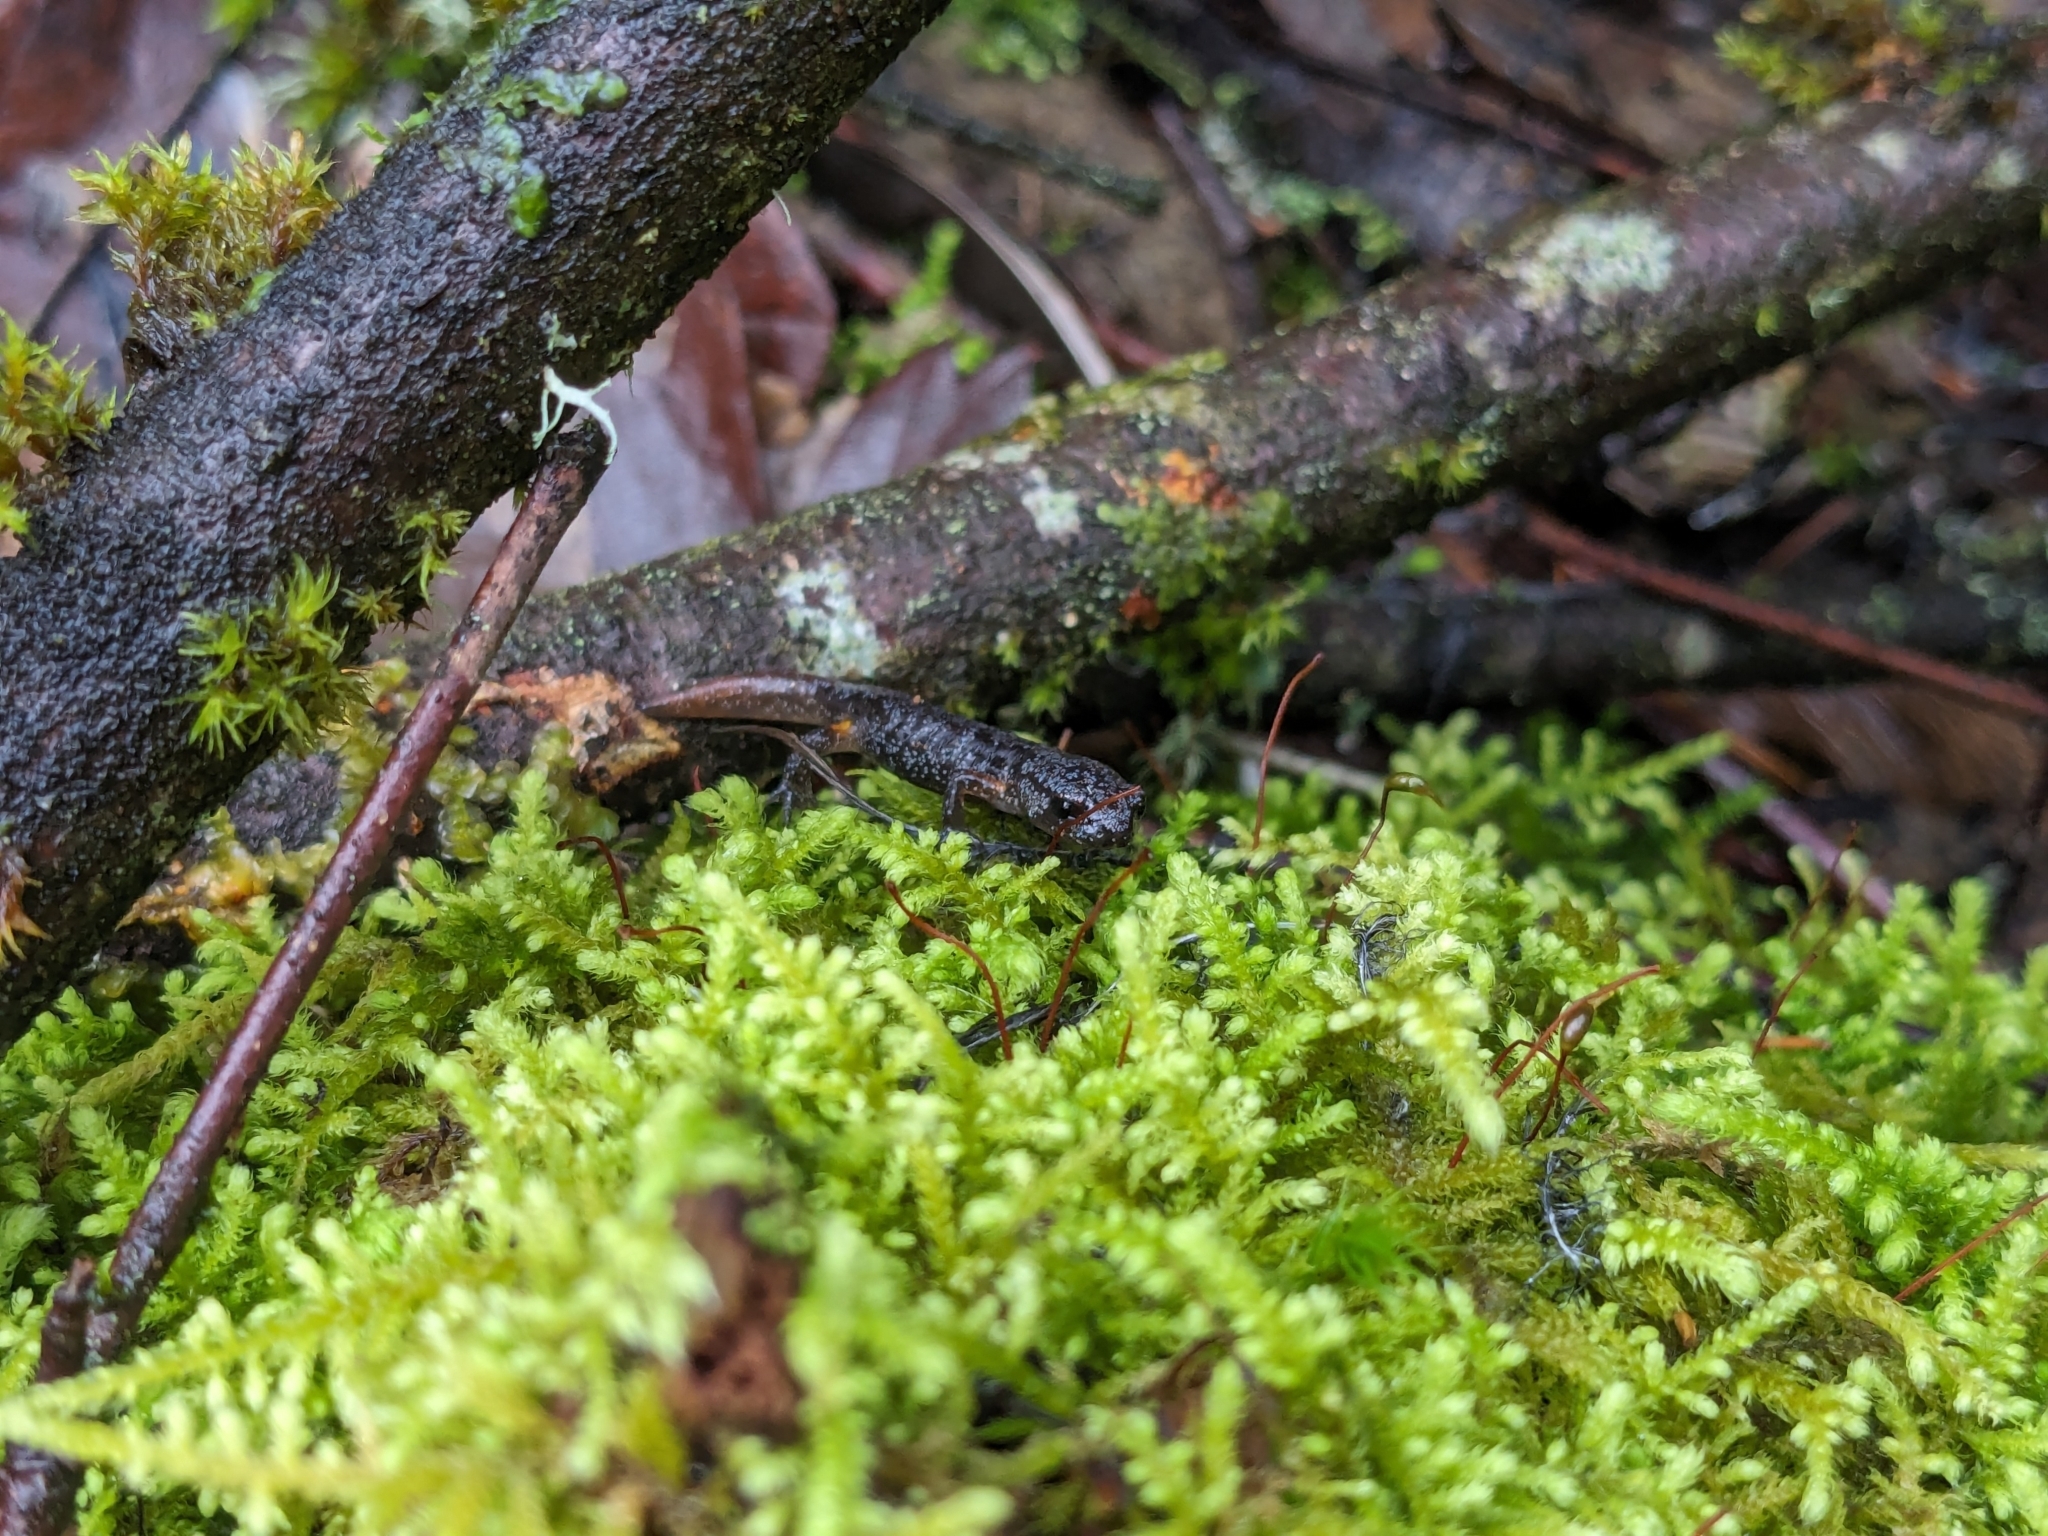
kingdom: Animalia
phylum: Chordata
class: Amphibia
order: Caudata
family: Plethodontidae
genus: Ensatina
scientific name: Ensatina eschscholtzii
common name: Ensatina
